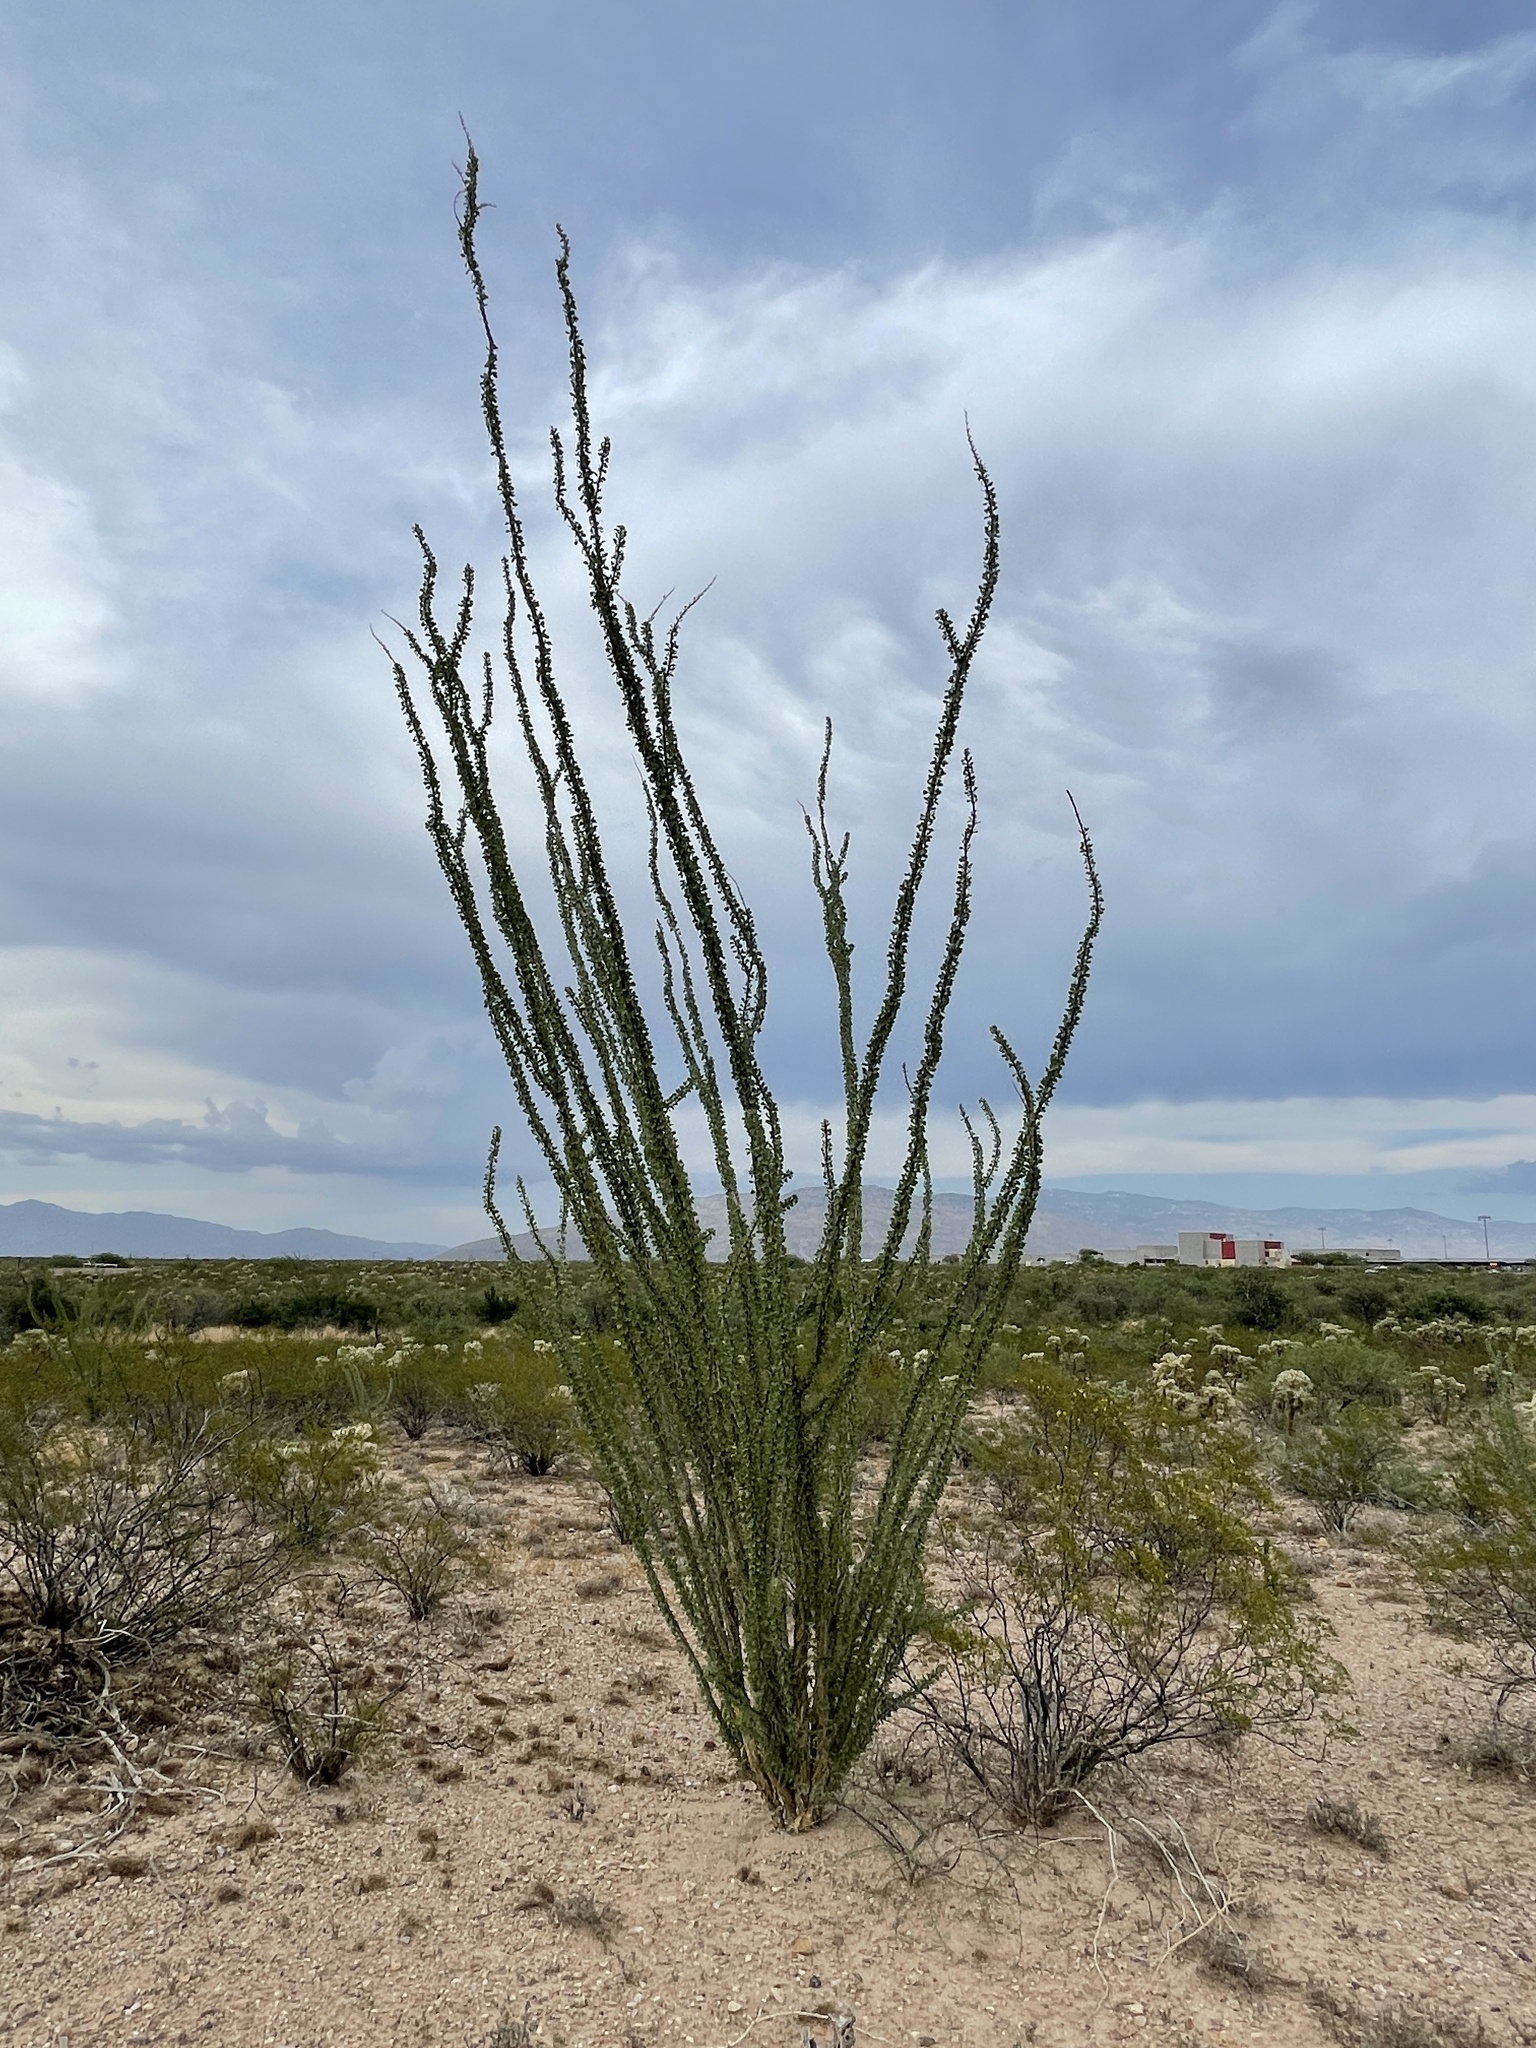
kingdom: Plantae
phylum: Tracheophyta
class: Magnoliopsida
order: Ericales
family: Fouquieriaceae
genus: Fouquieria
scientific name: Fouquieria splendens
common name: Vine-cactus
